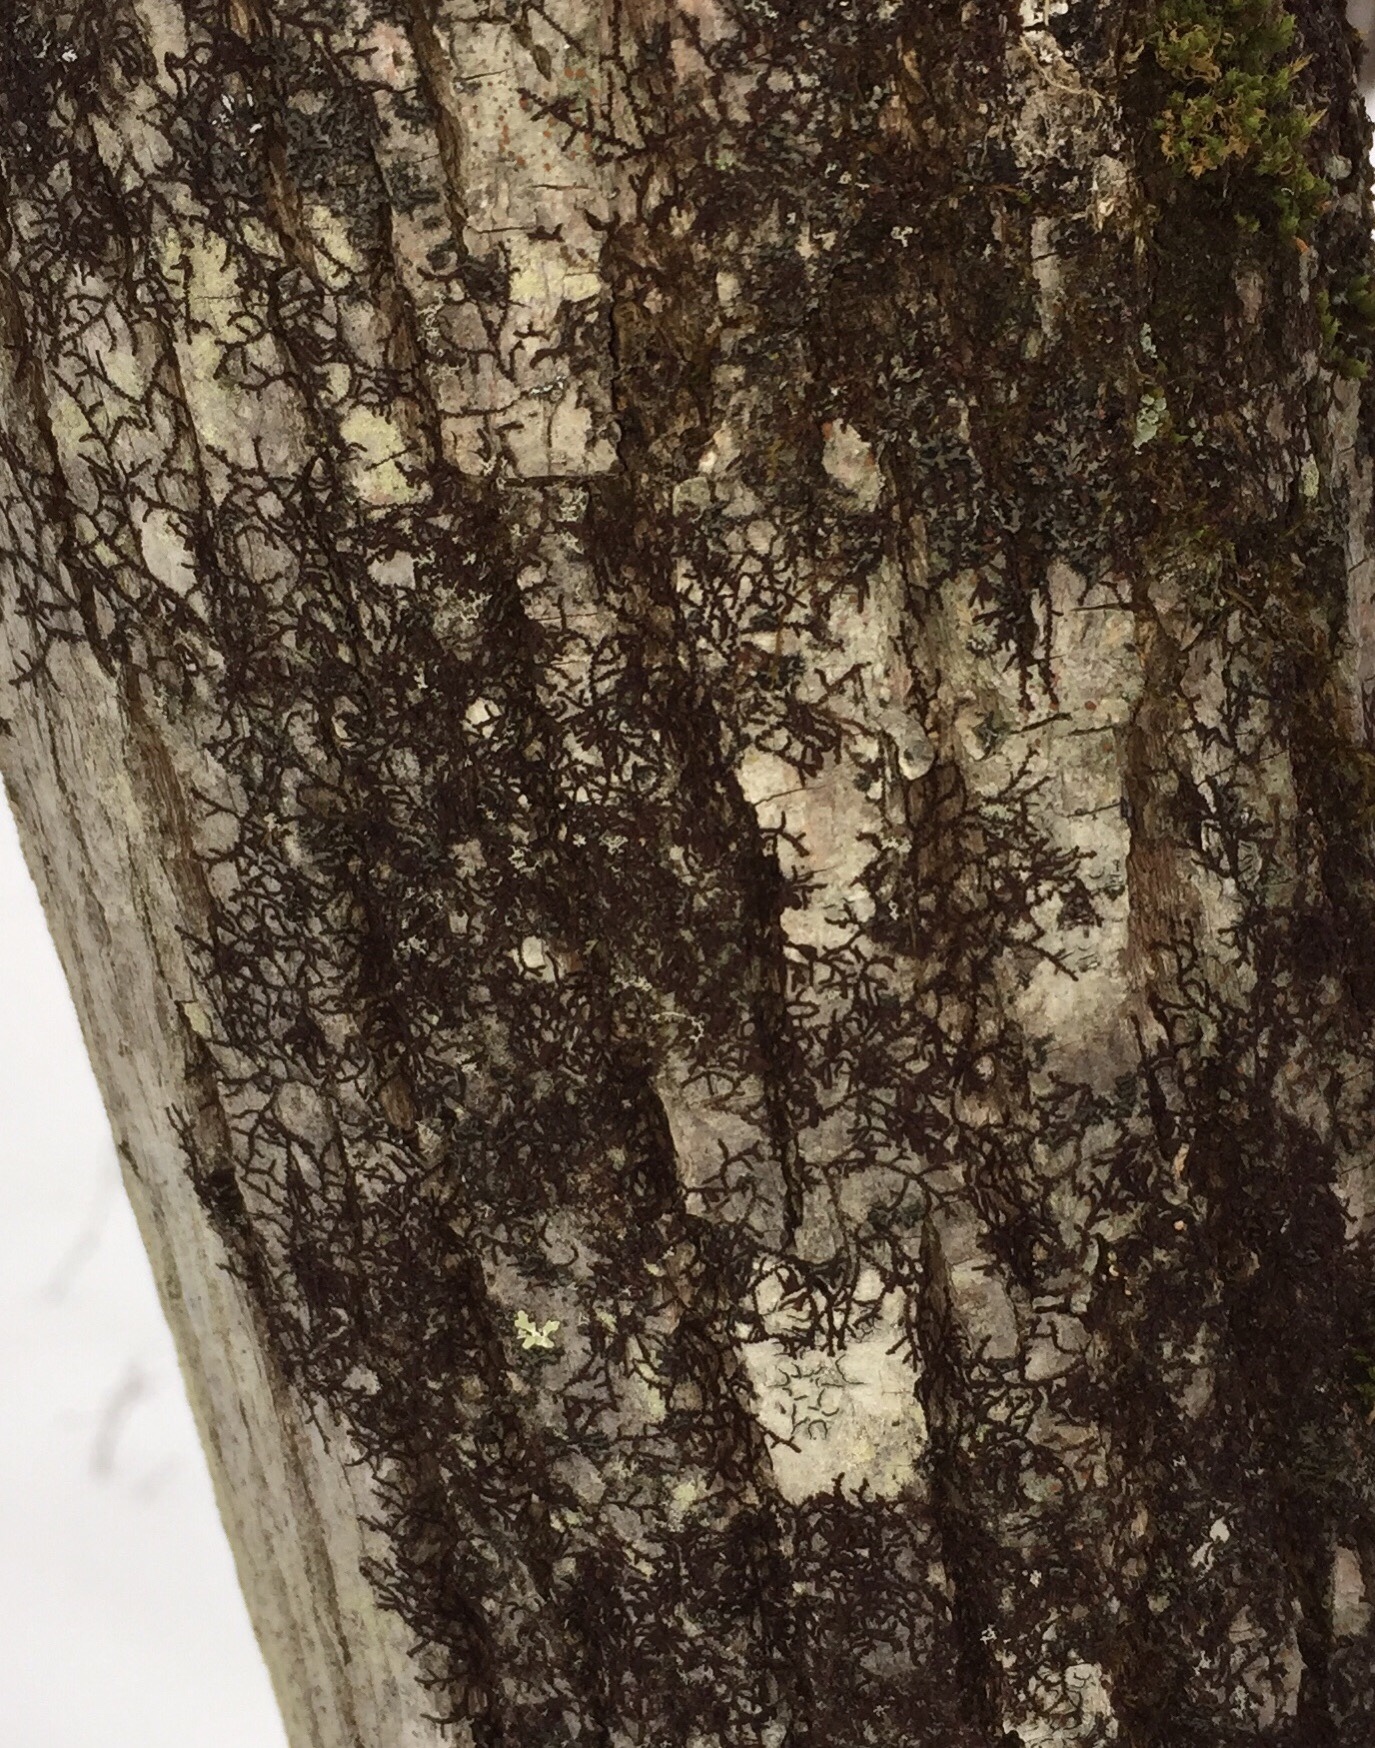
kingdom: Plantae
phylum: Marchantiophyta
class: Jungermanniopsida
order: Porellales
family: Frullaniaceae
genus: Frullania
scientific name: Frullania eboracensis
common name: New york scalewort
